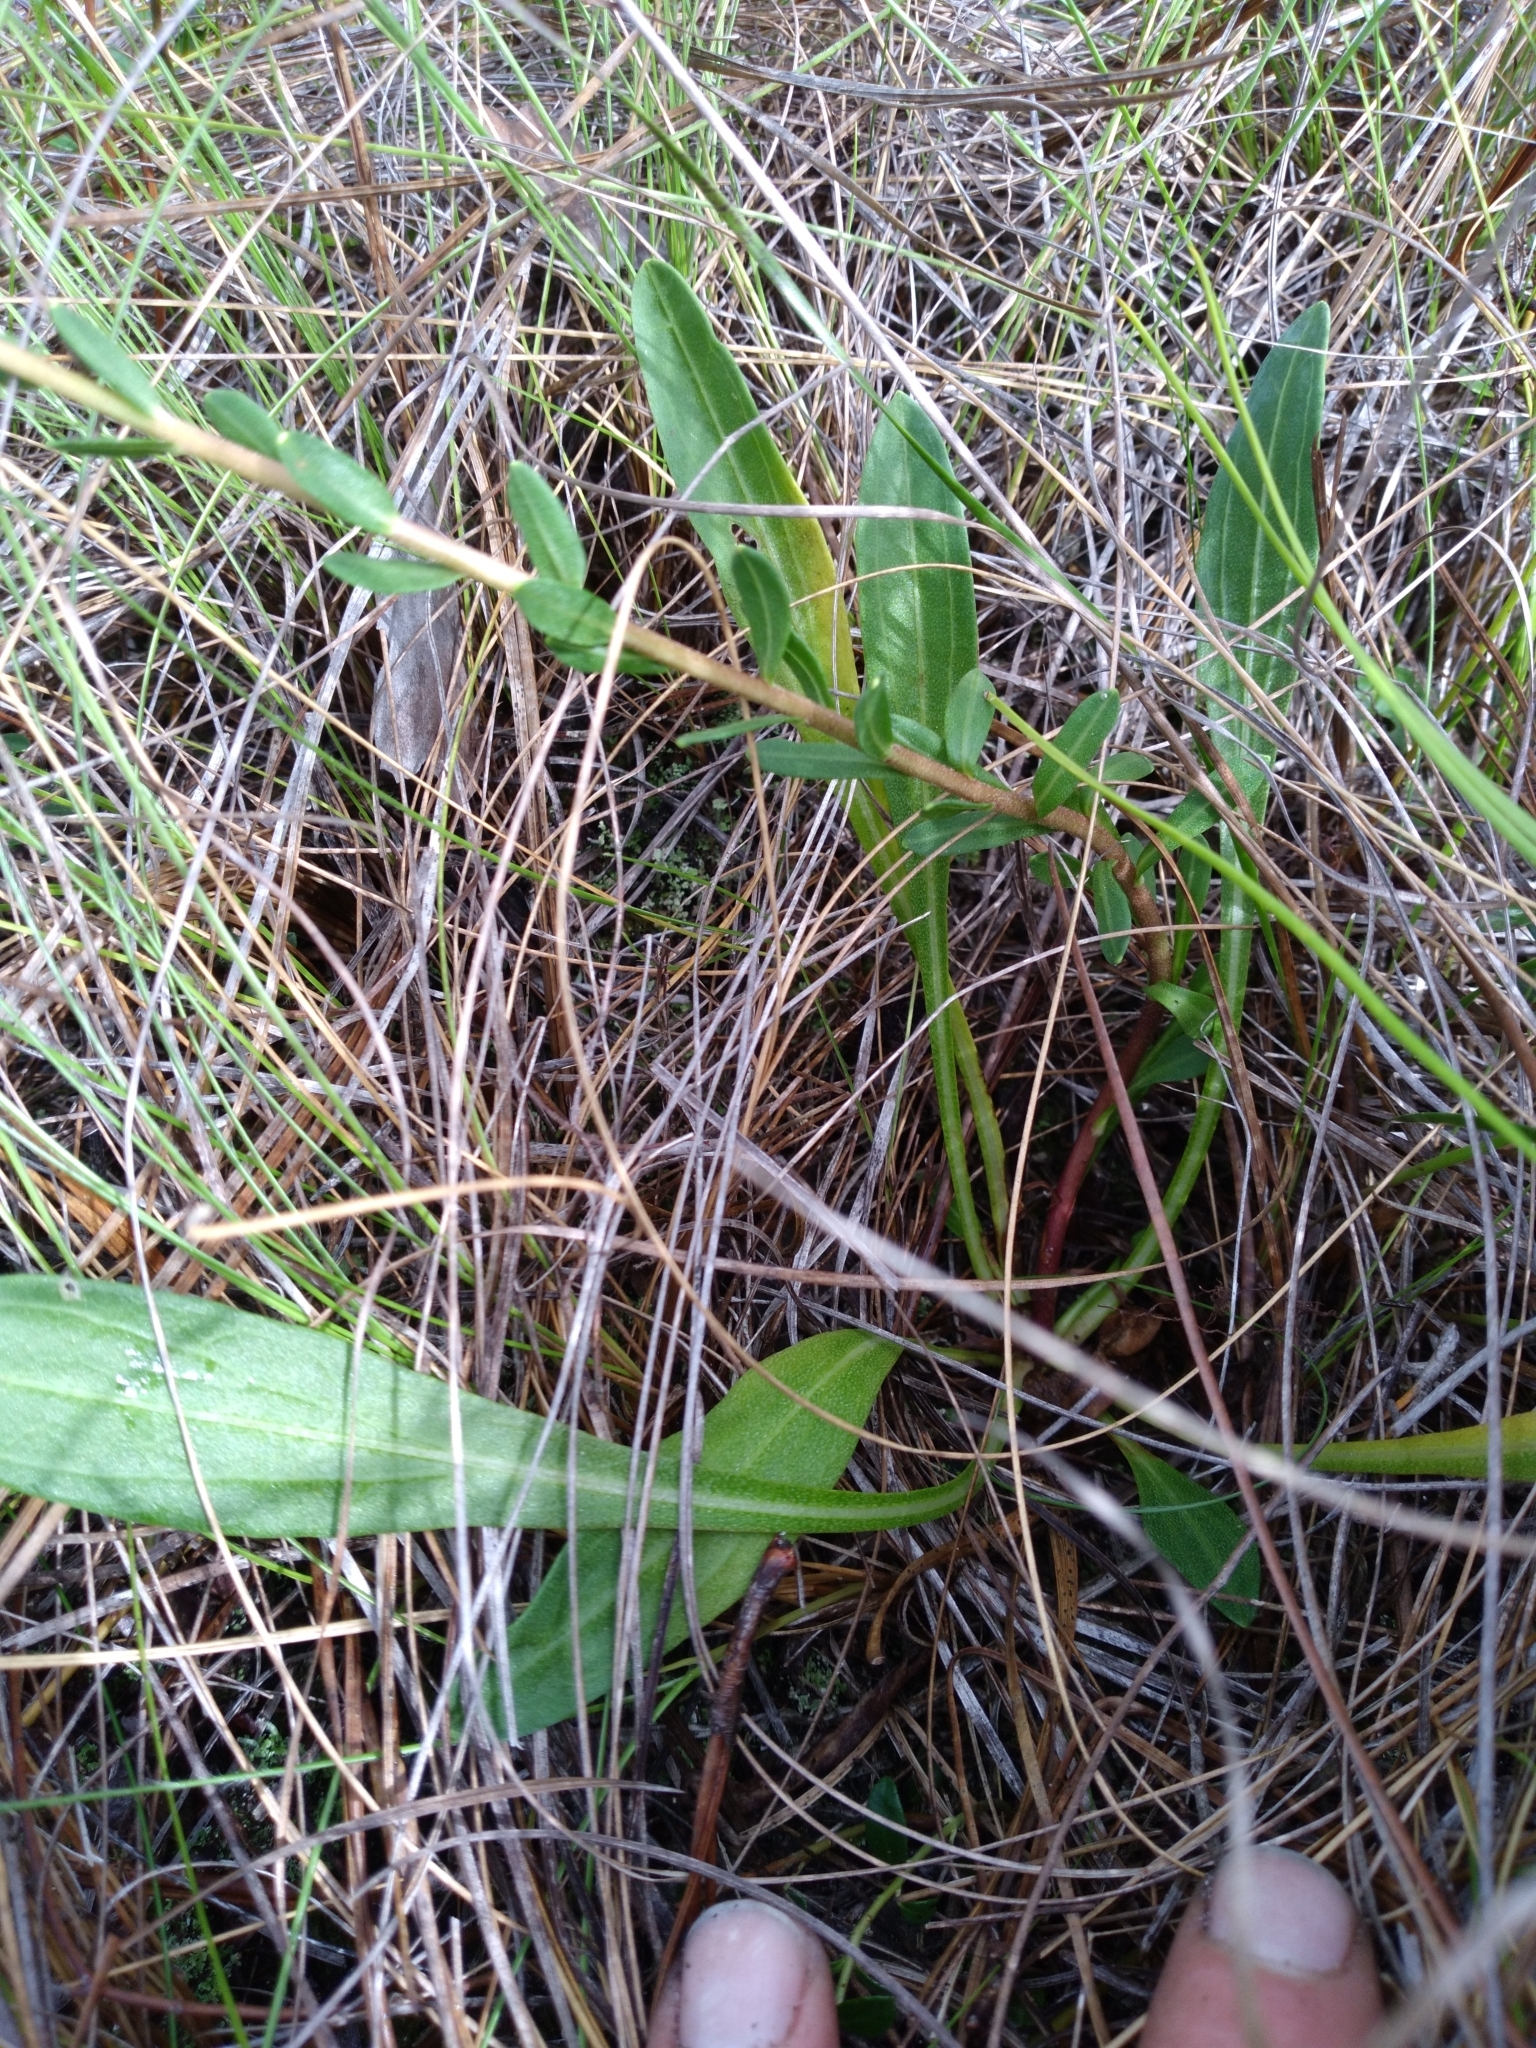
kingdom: Plantae
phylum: Tracheophyta
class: Magnoliopsida
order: Asterales
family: Asteraceae
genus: Carphephorus
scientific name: Carphephorus tomentosus
